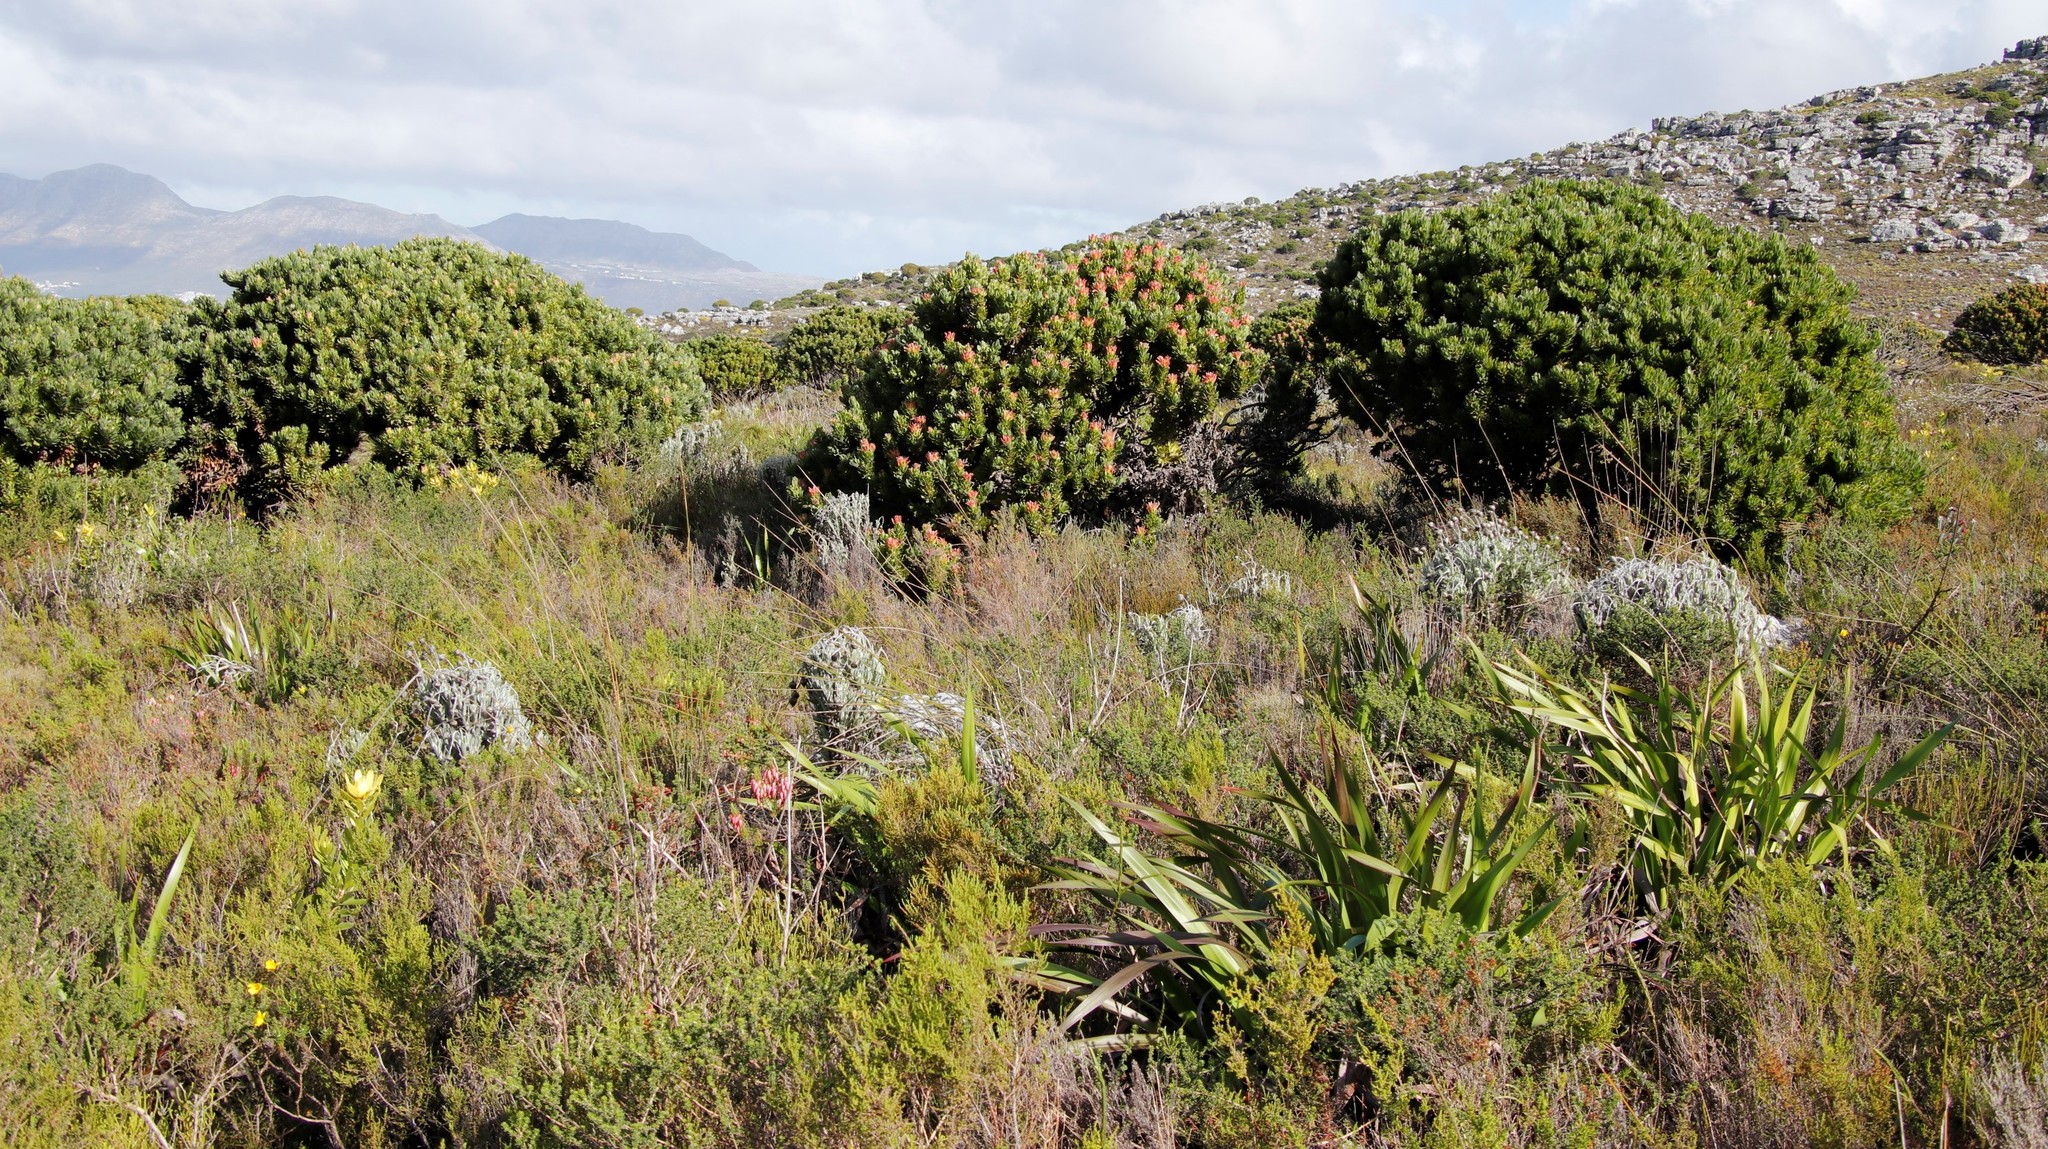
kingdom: Plantae
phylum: Tracheophyta
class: Magnoliopsida
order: Proteales
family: Proteaceae
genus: Mimetes
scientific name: Mimetes fimbriifolius
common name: Fringed bottlebrush
